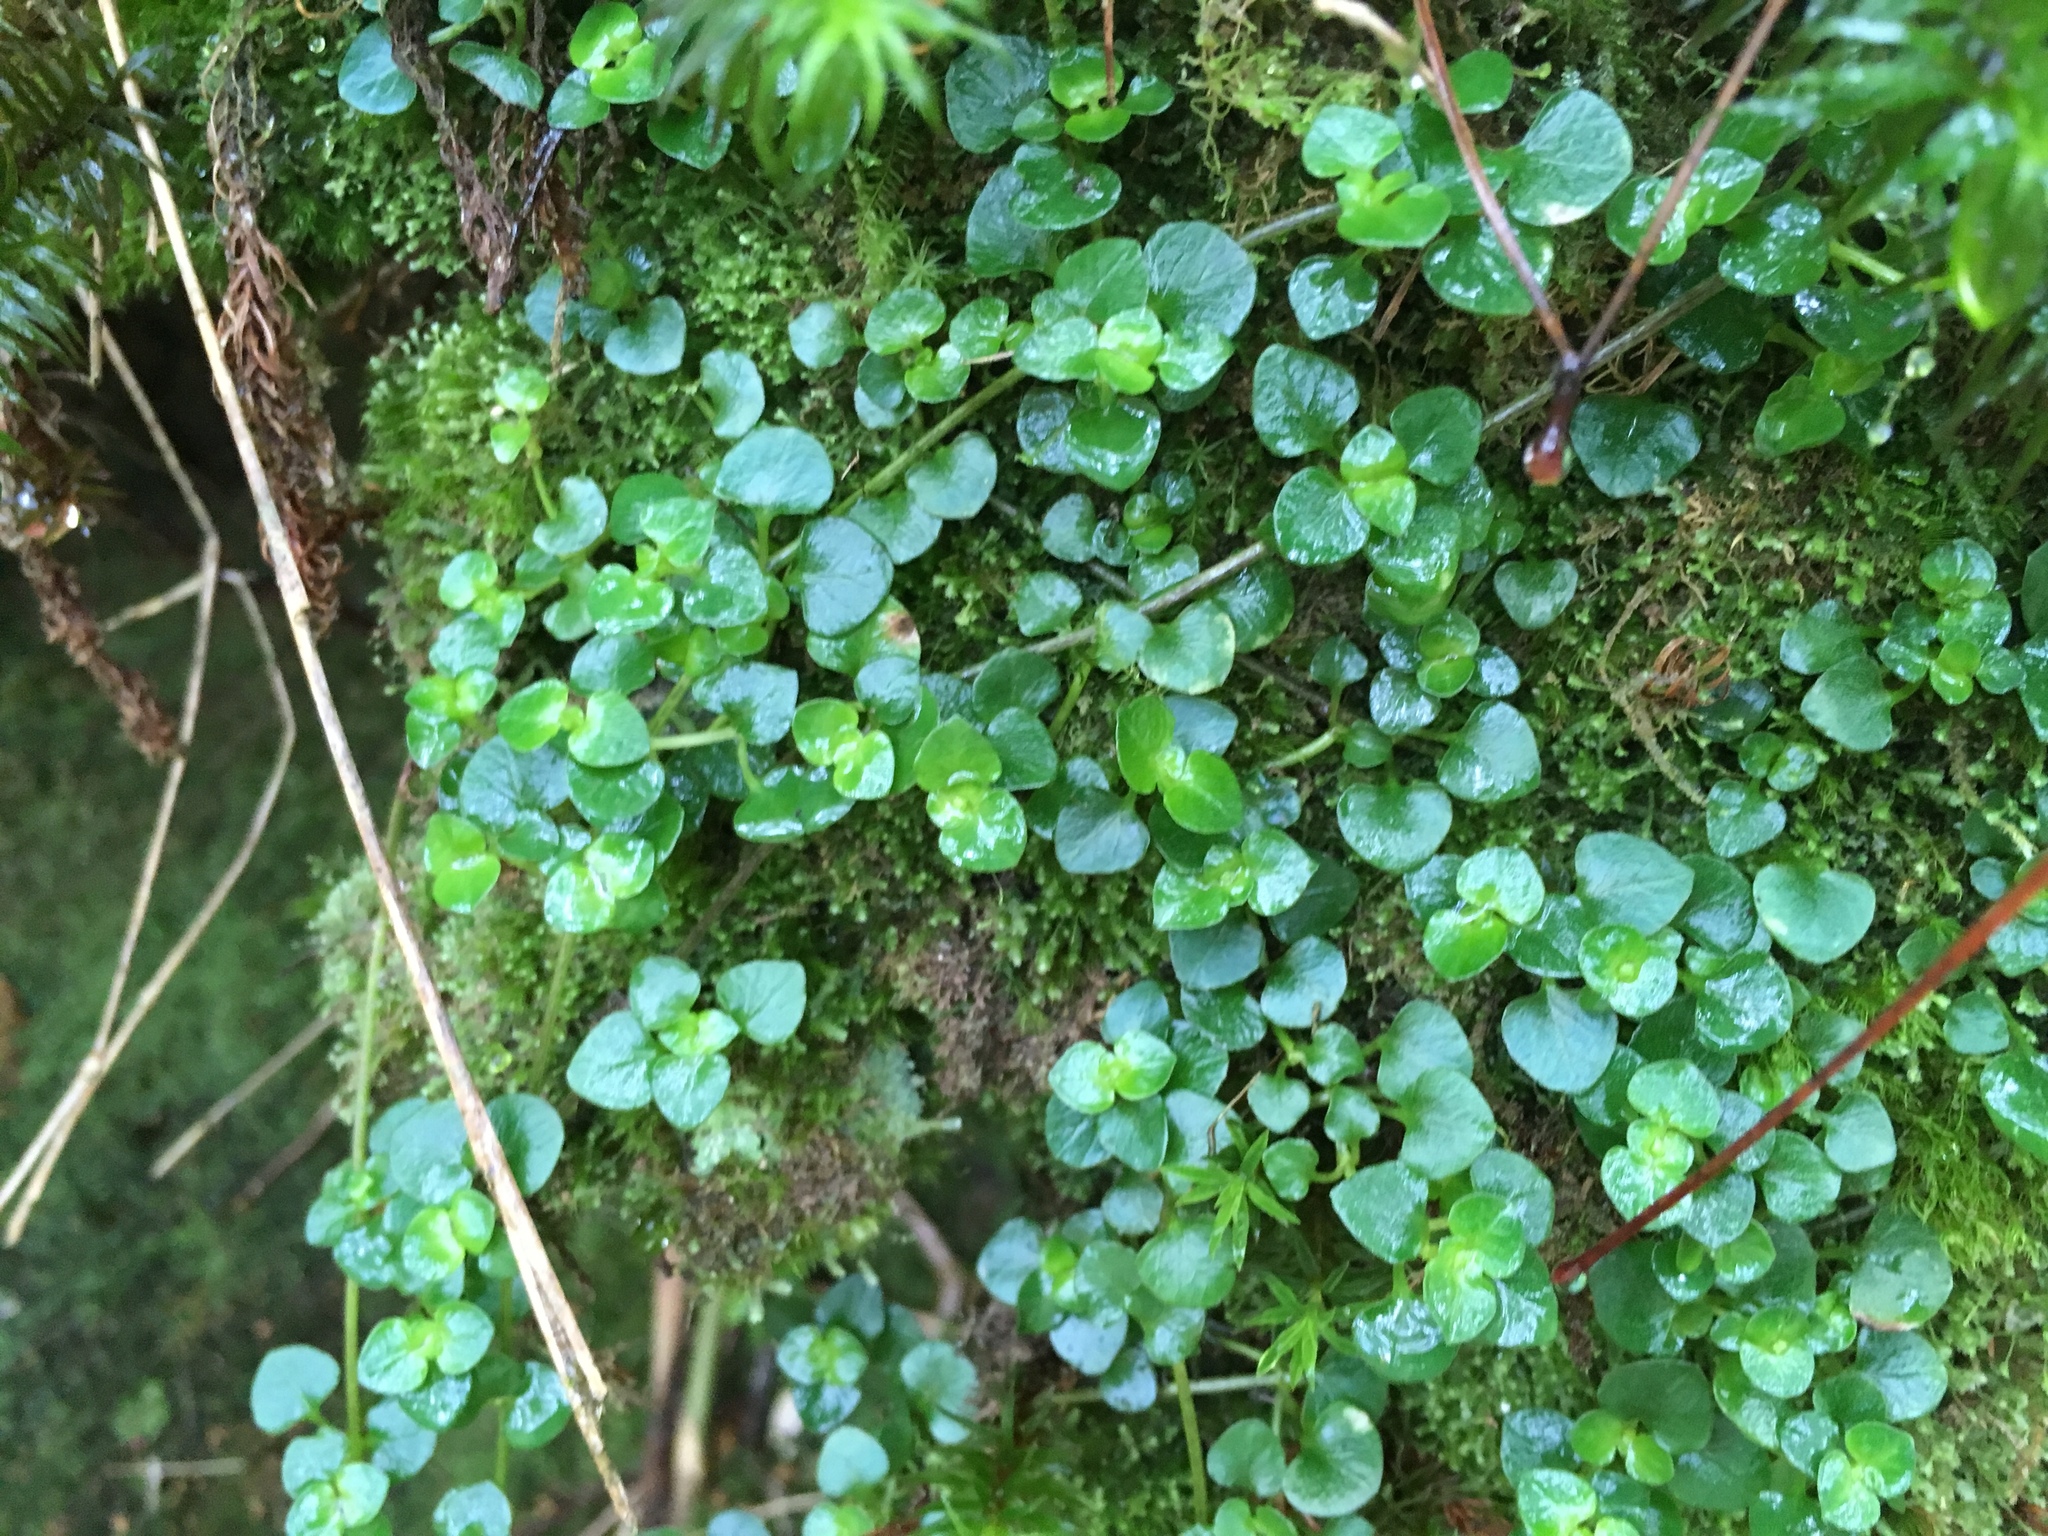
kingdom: Plantae
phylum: Tracheophyta
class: Magnoliopsida
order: Gentianales
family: Rubiaceae
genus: Nertera
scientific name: Nertera nigricarpa
